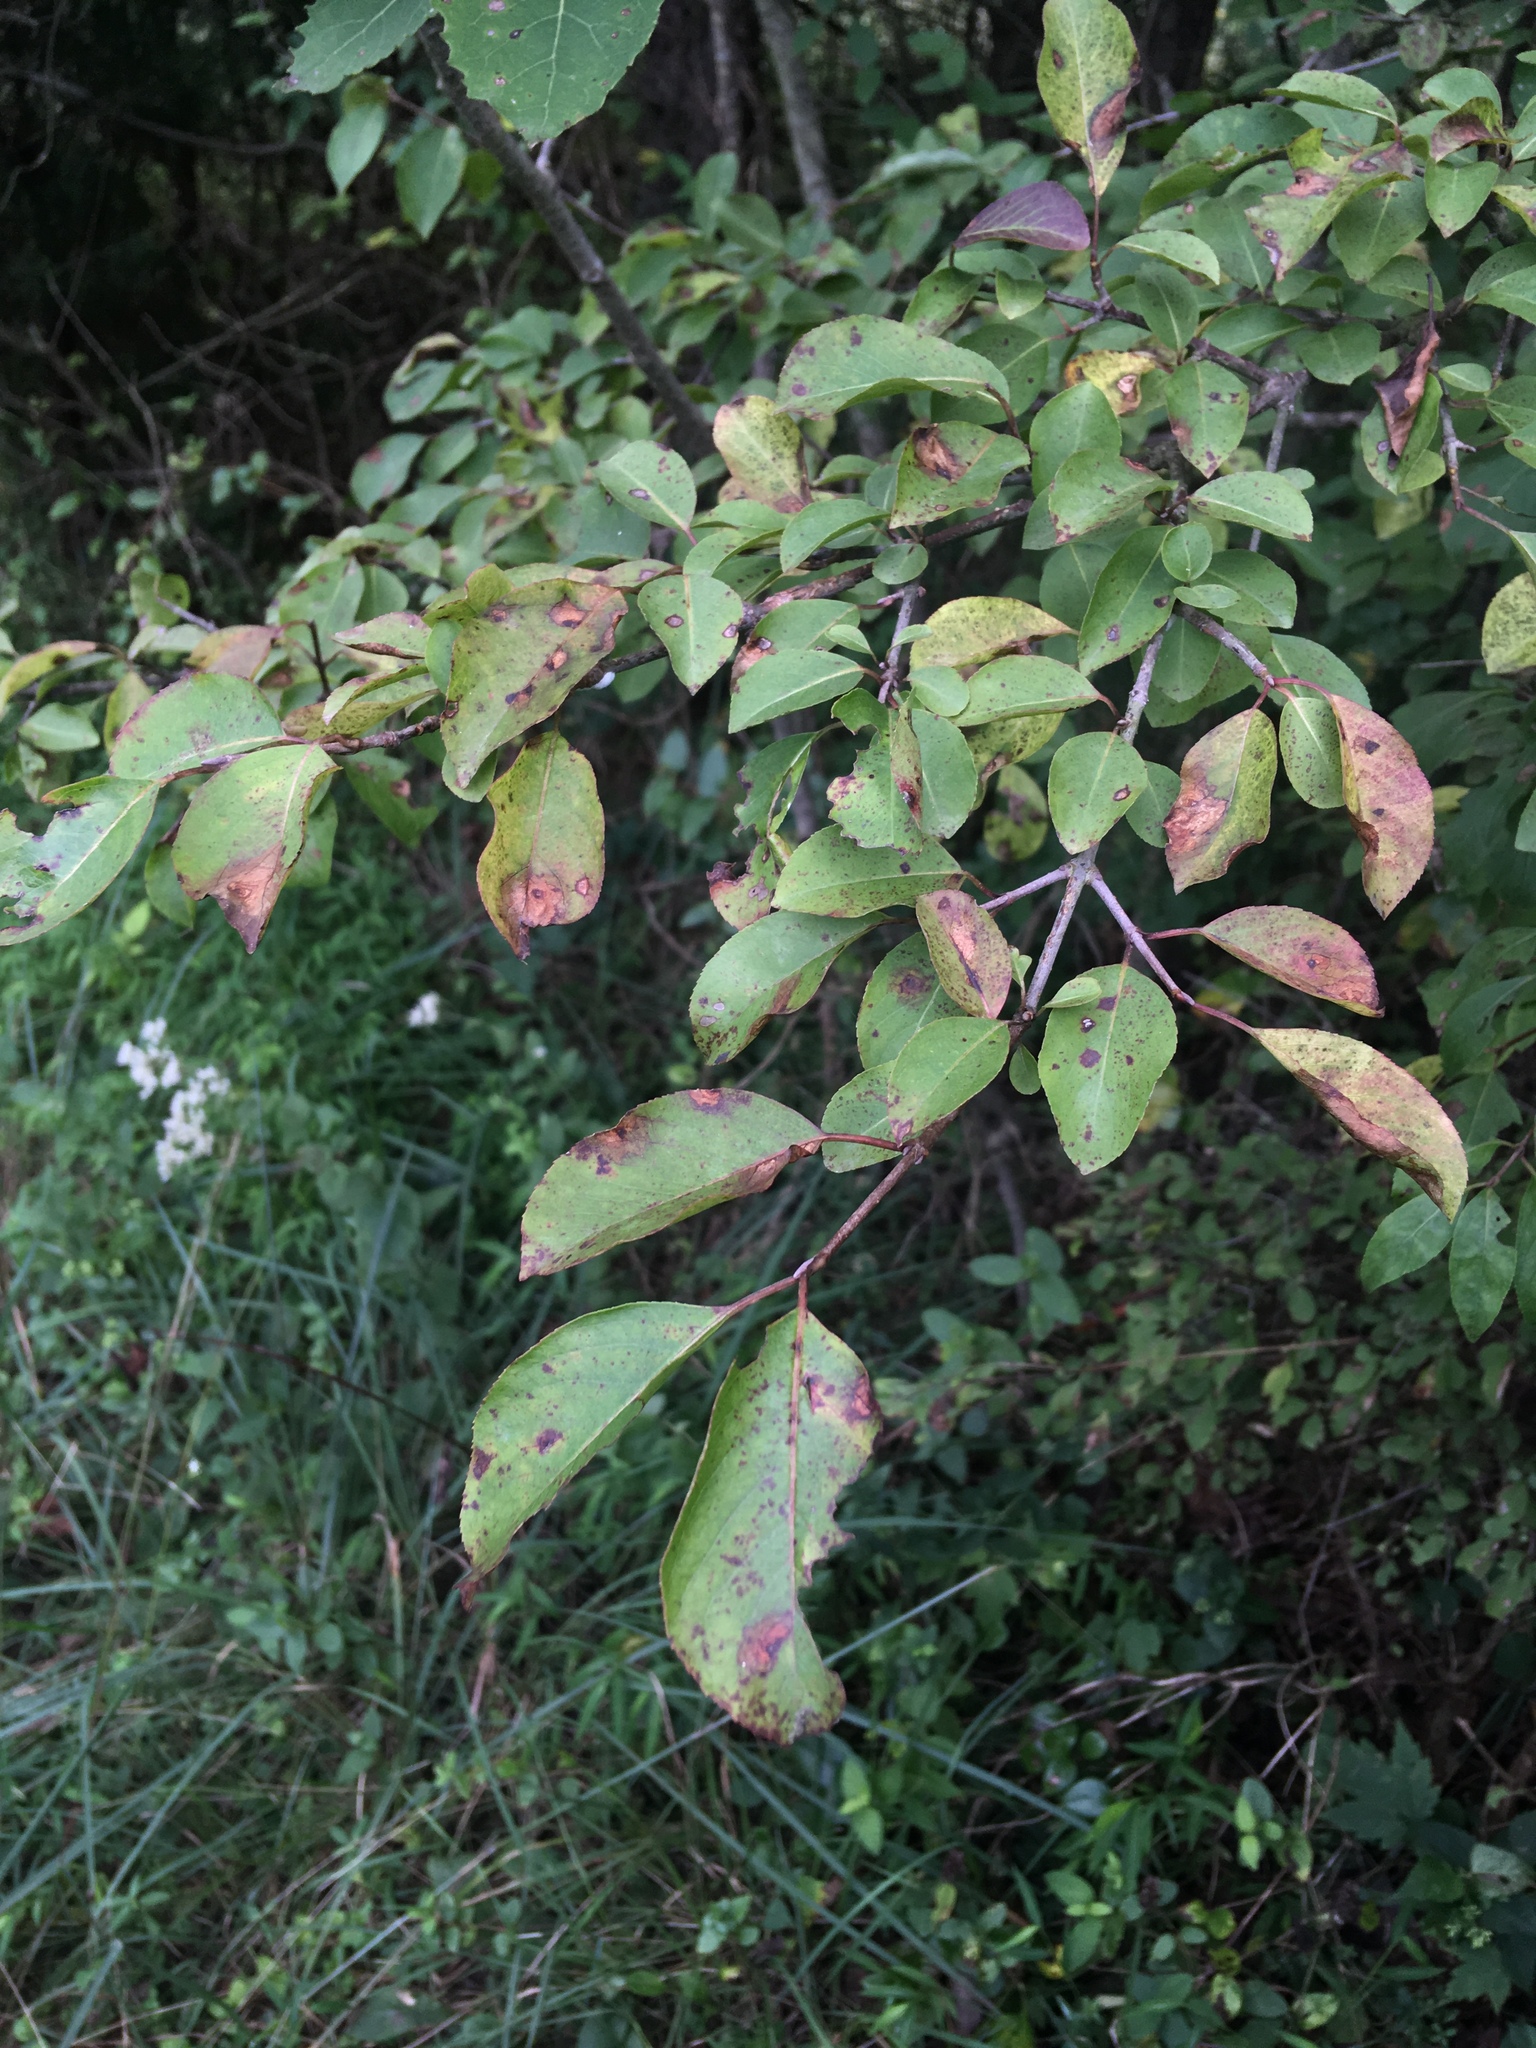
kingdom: Plantae
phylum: Tracheophyta
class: Magnoliopsida
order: Dipsacales
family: Viburnaceae
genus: Viburnum
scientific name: Viburnum prunifolium
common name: Black haw
